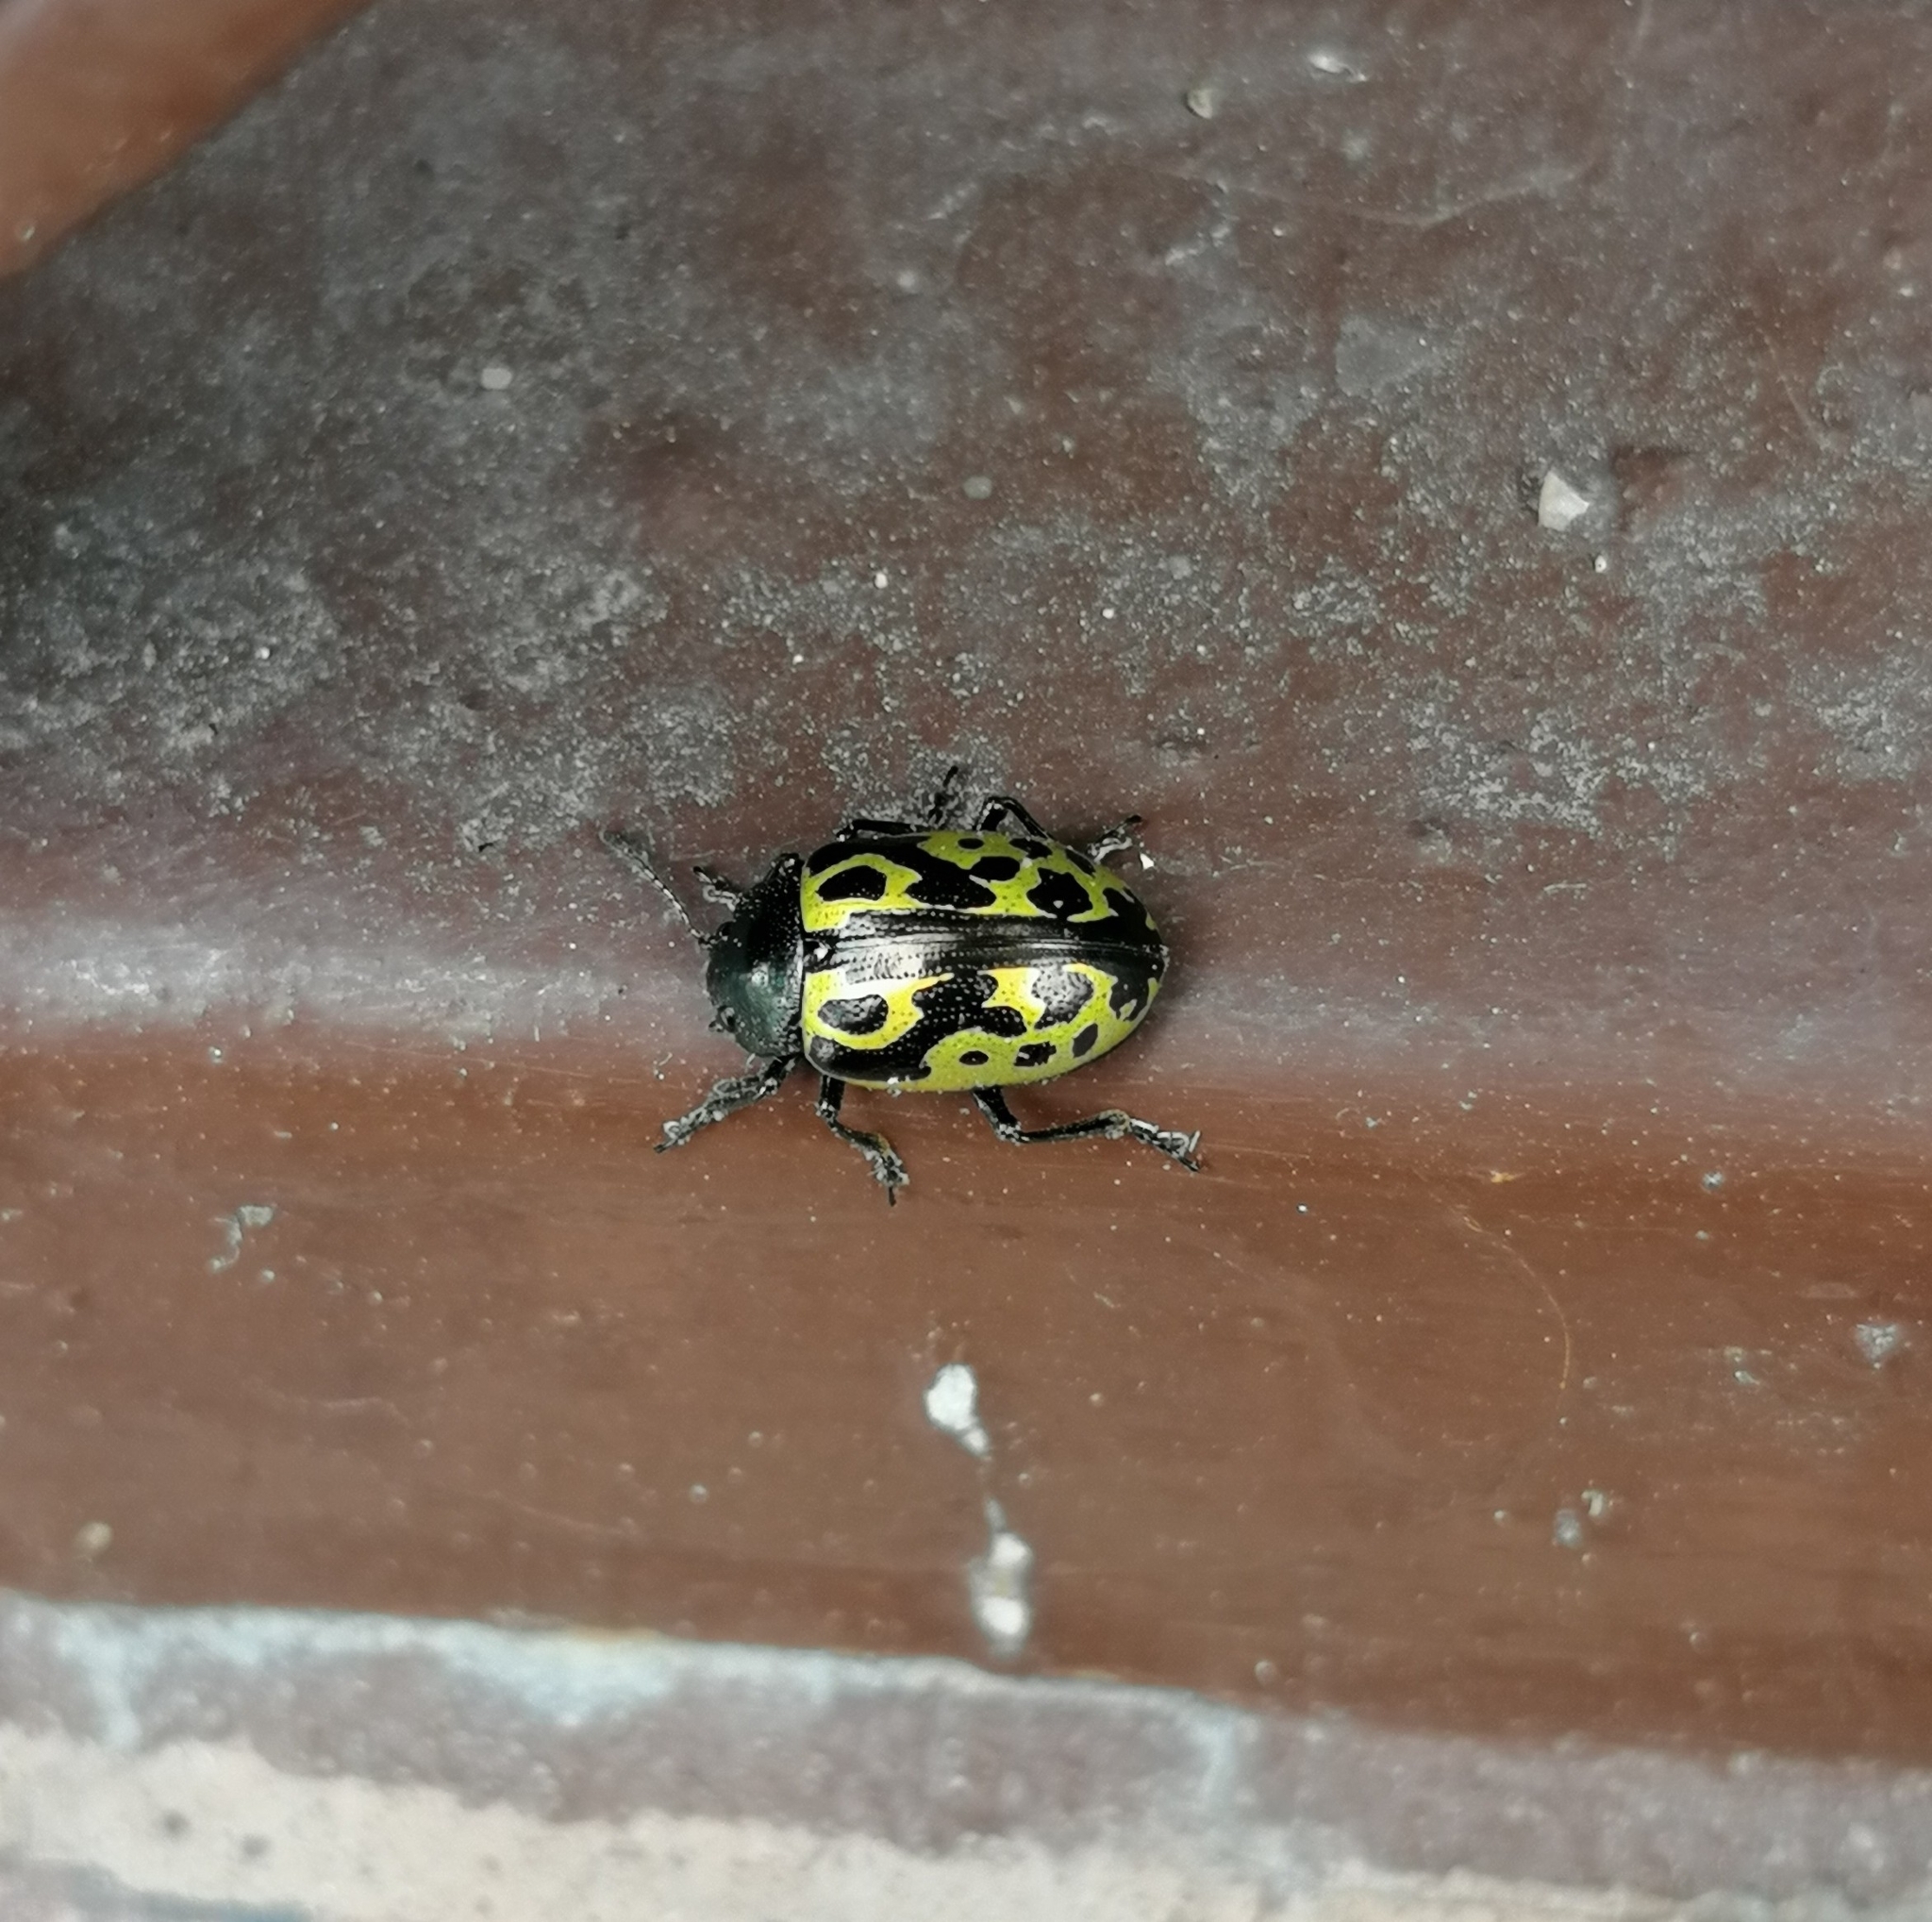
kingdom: Animalia
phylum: Arthropoda
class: Insecta
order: Coleoptera
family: Chrysomelidae
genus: Calligrapha
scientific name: Calligrapha
